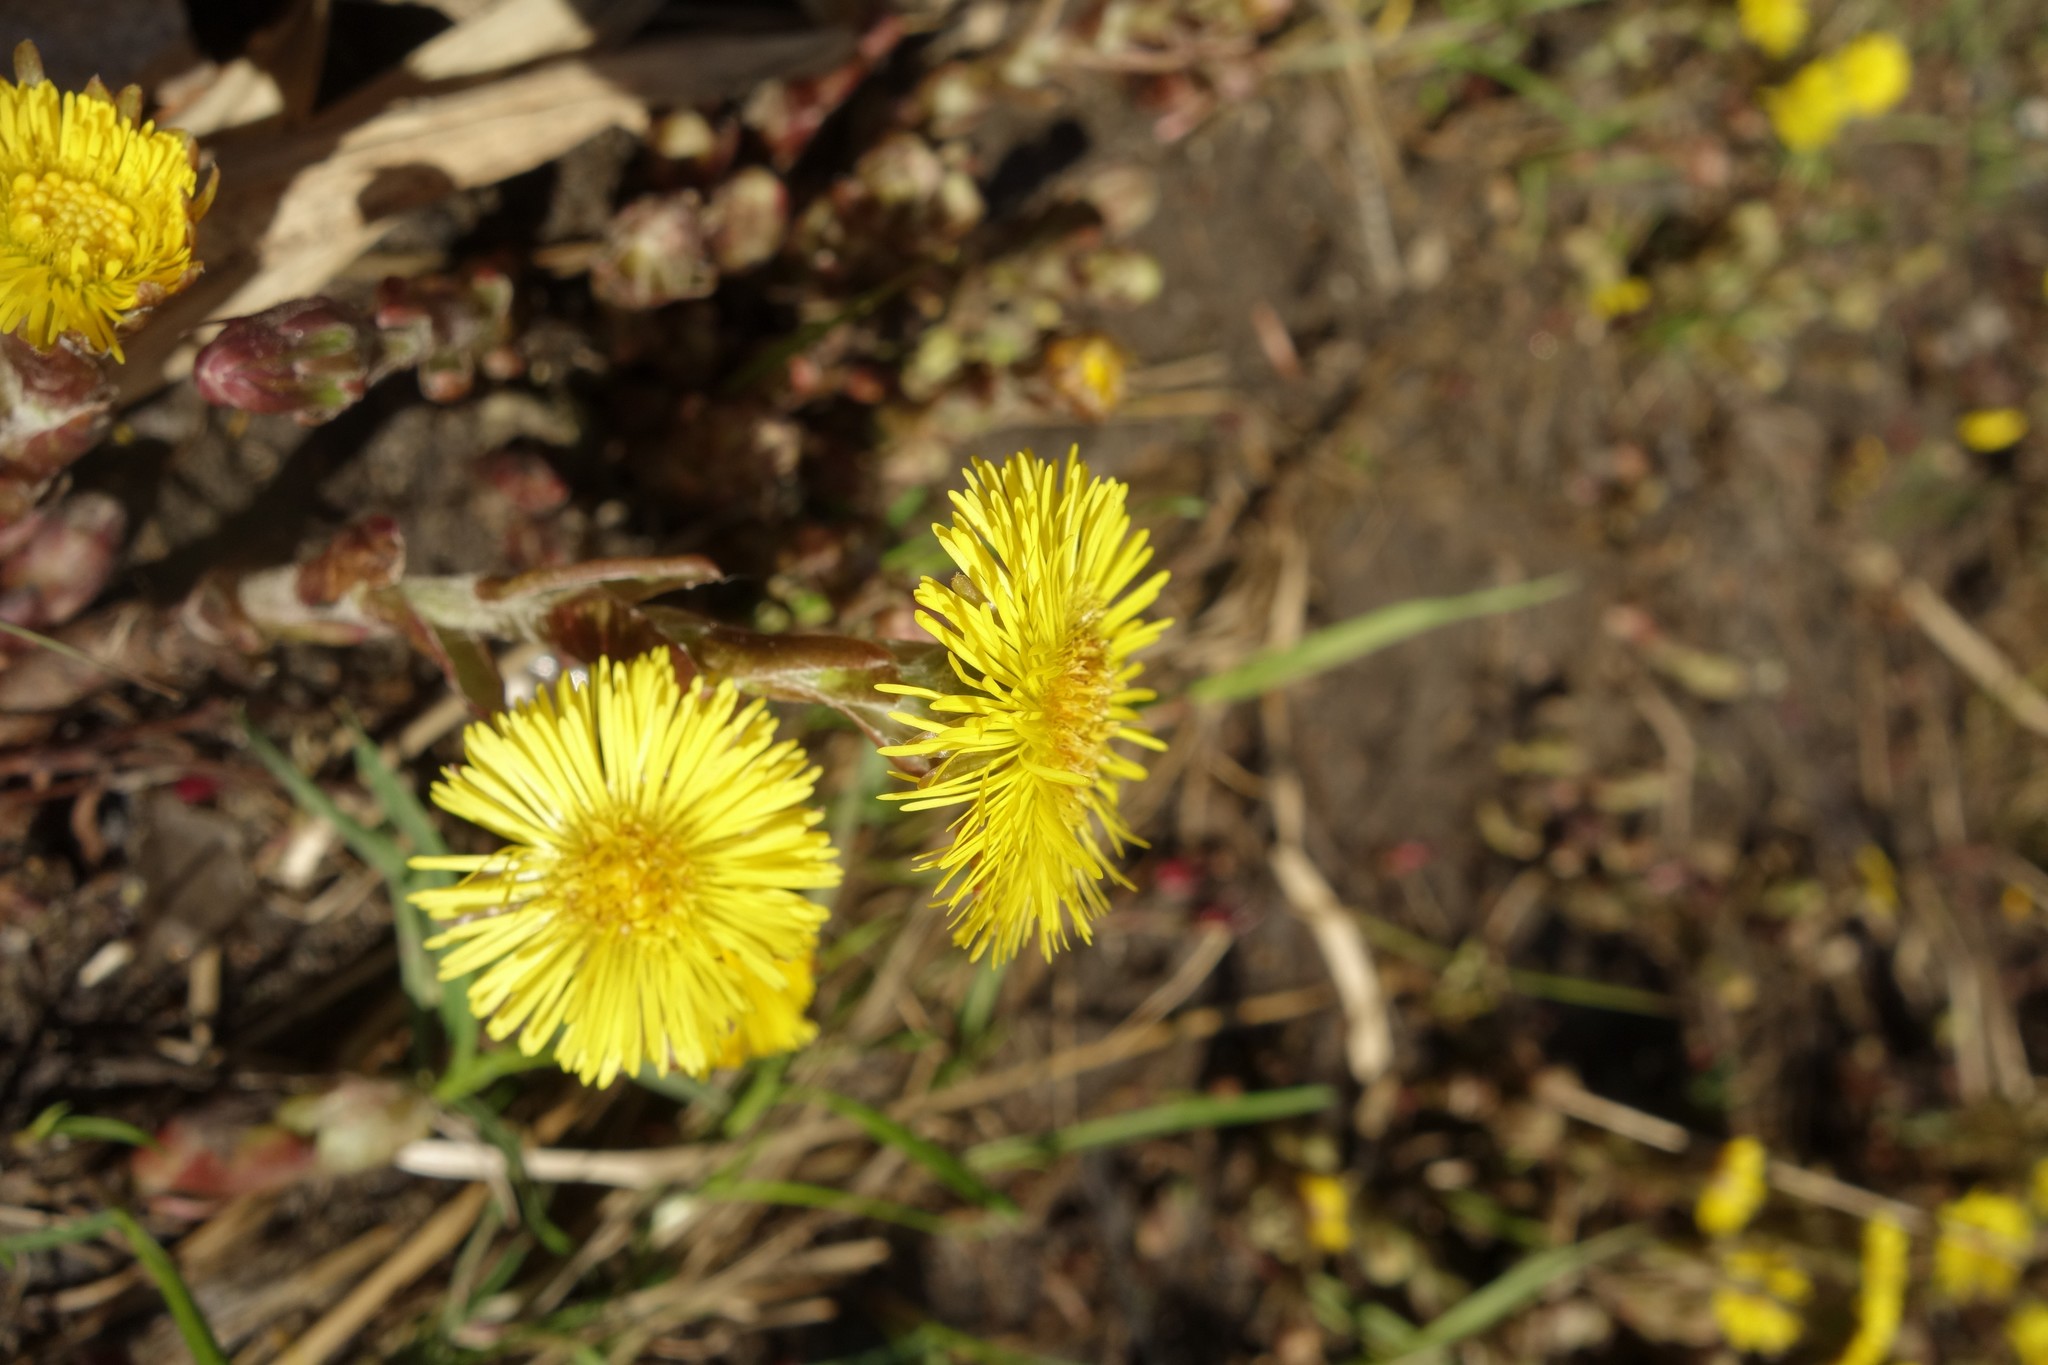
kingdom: Plantae
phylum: Tracheophyta
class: Magnoliopsida
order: Asterales
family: Asteraceae
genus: Tussilago
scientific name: Tussilago farfara
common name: Coltsfoot
